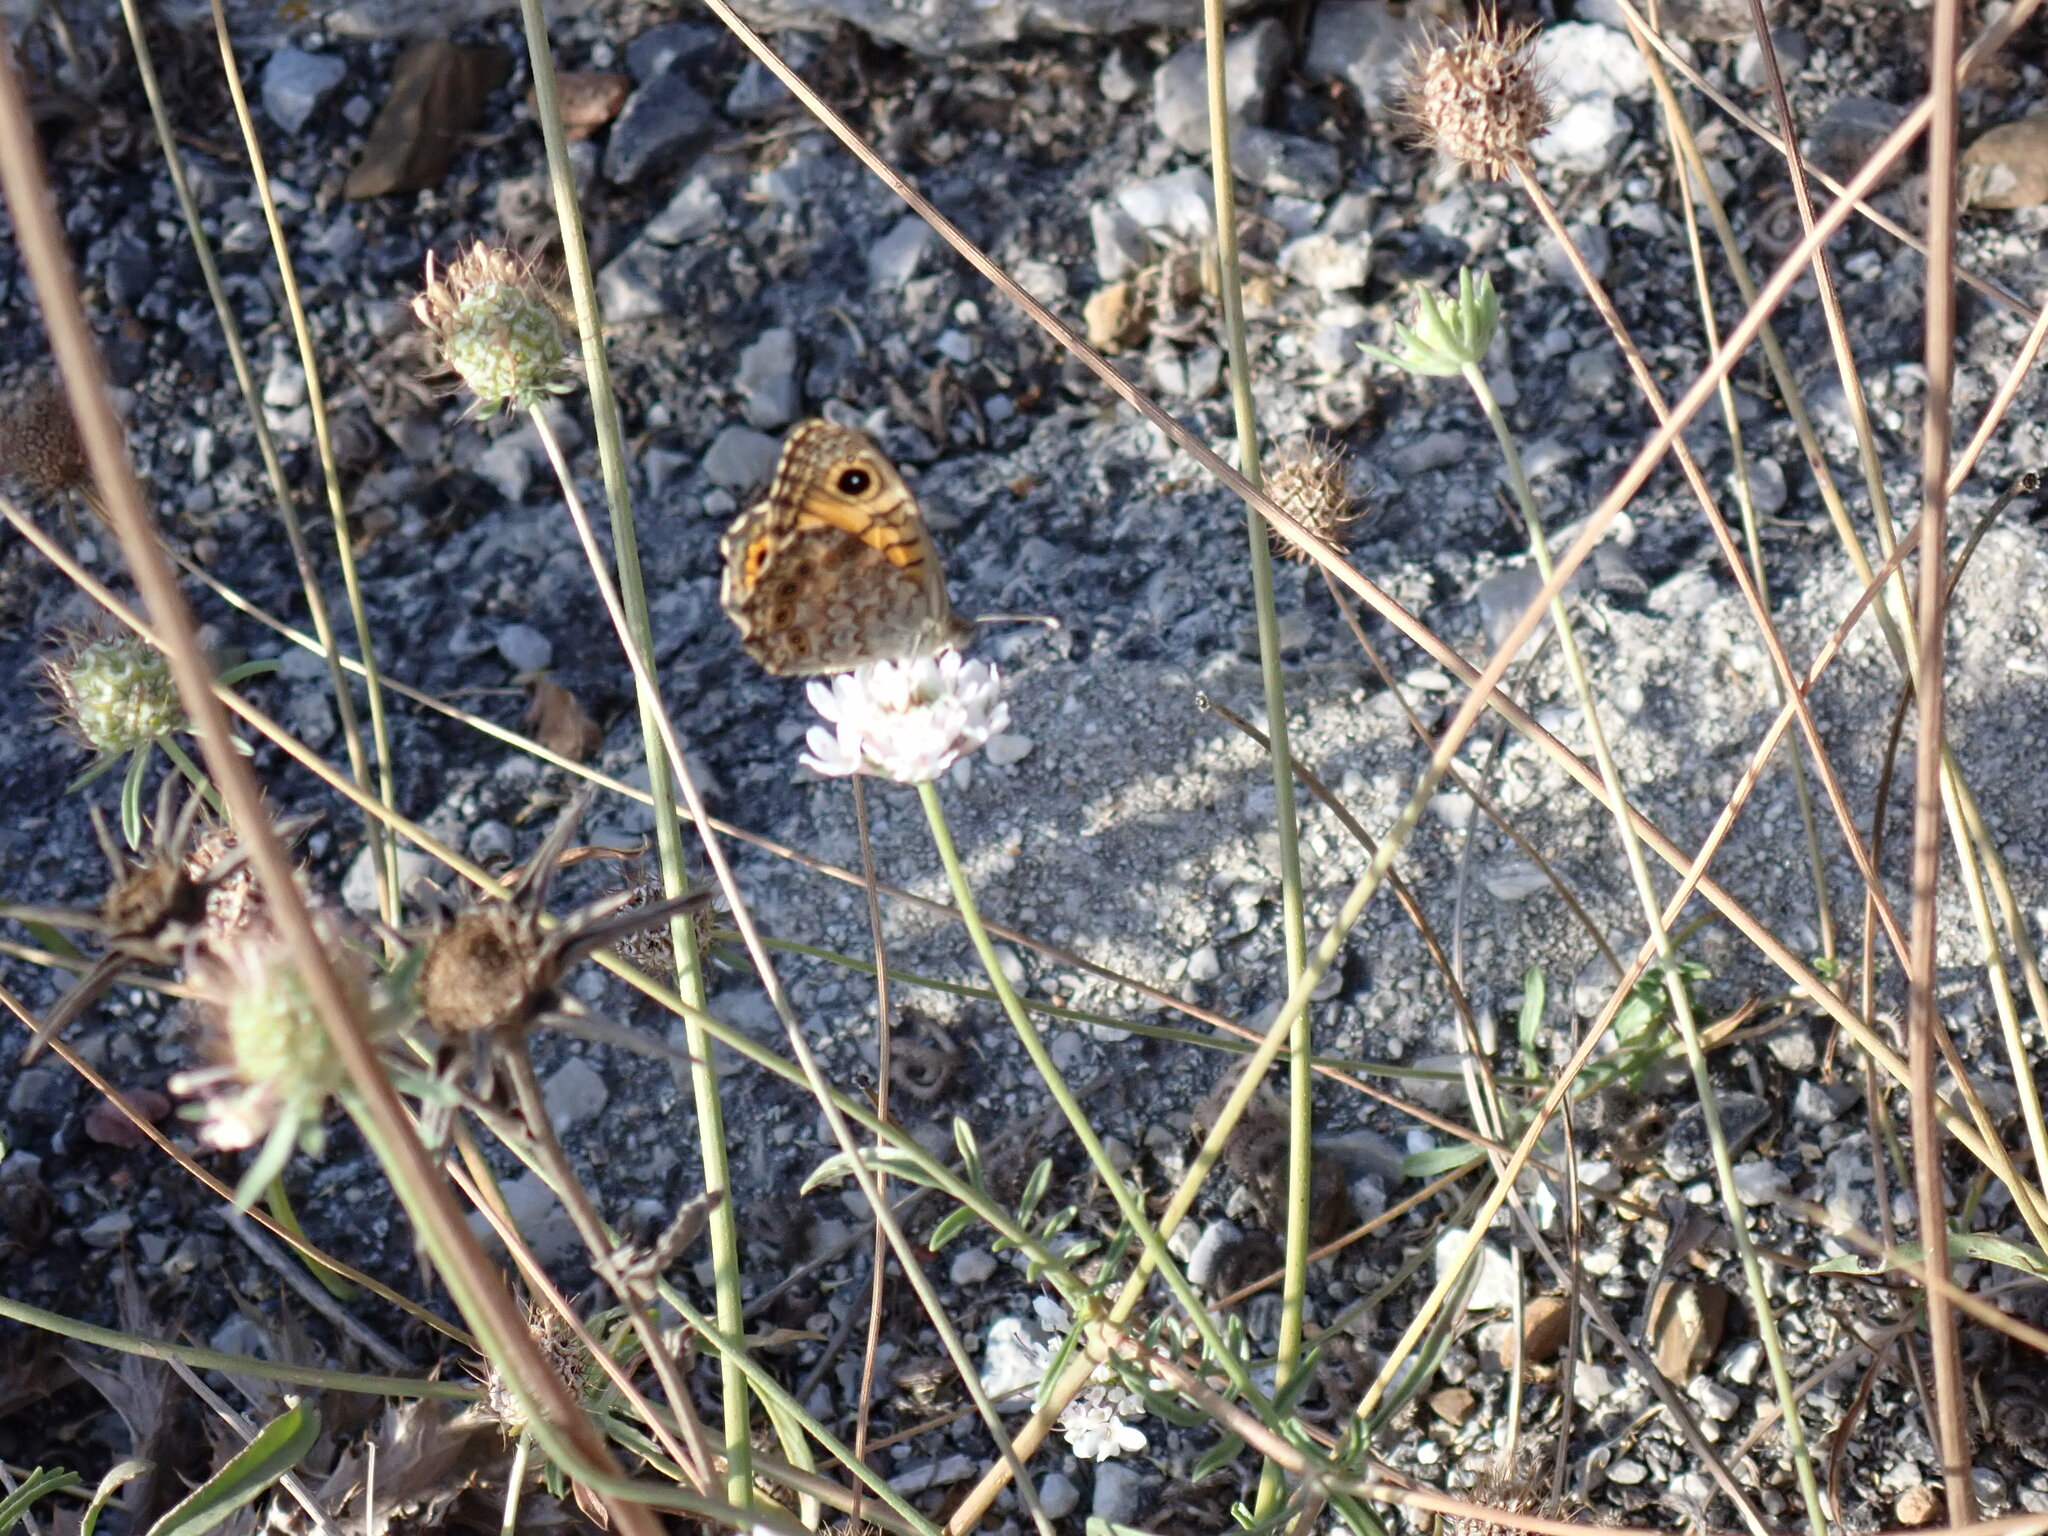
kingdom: Animalia
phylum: Arthropoda
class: Insecta
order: Lepidoptera
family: Nymphalidae
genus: Pararge
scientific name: Pararge Lasiommata megera
